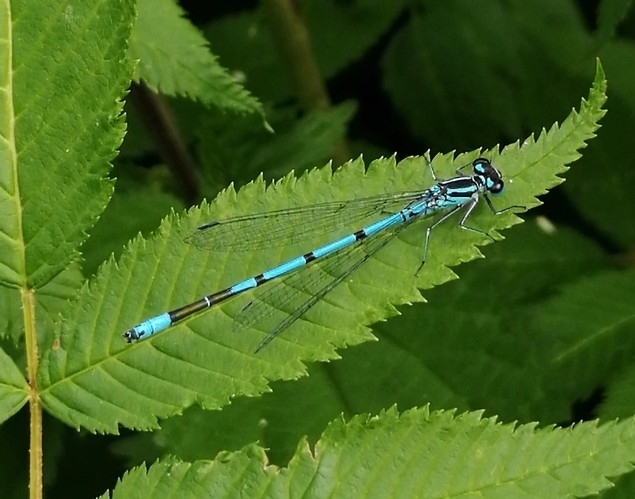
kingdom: Animalia
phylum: Arthropoda
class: Insecta
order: Odonata
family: Coenagrionidae
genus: Coenagrion
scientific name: Coenagrion puella
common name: Azure damselfly
